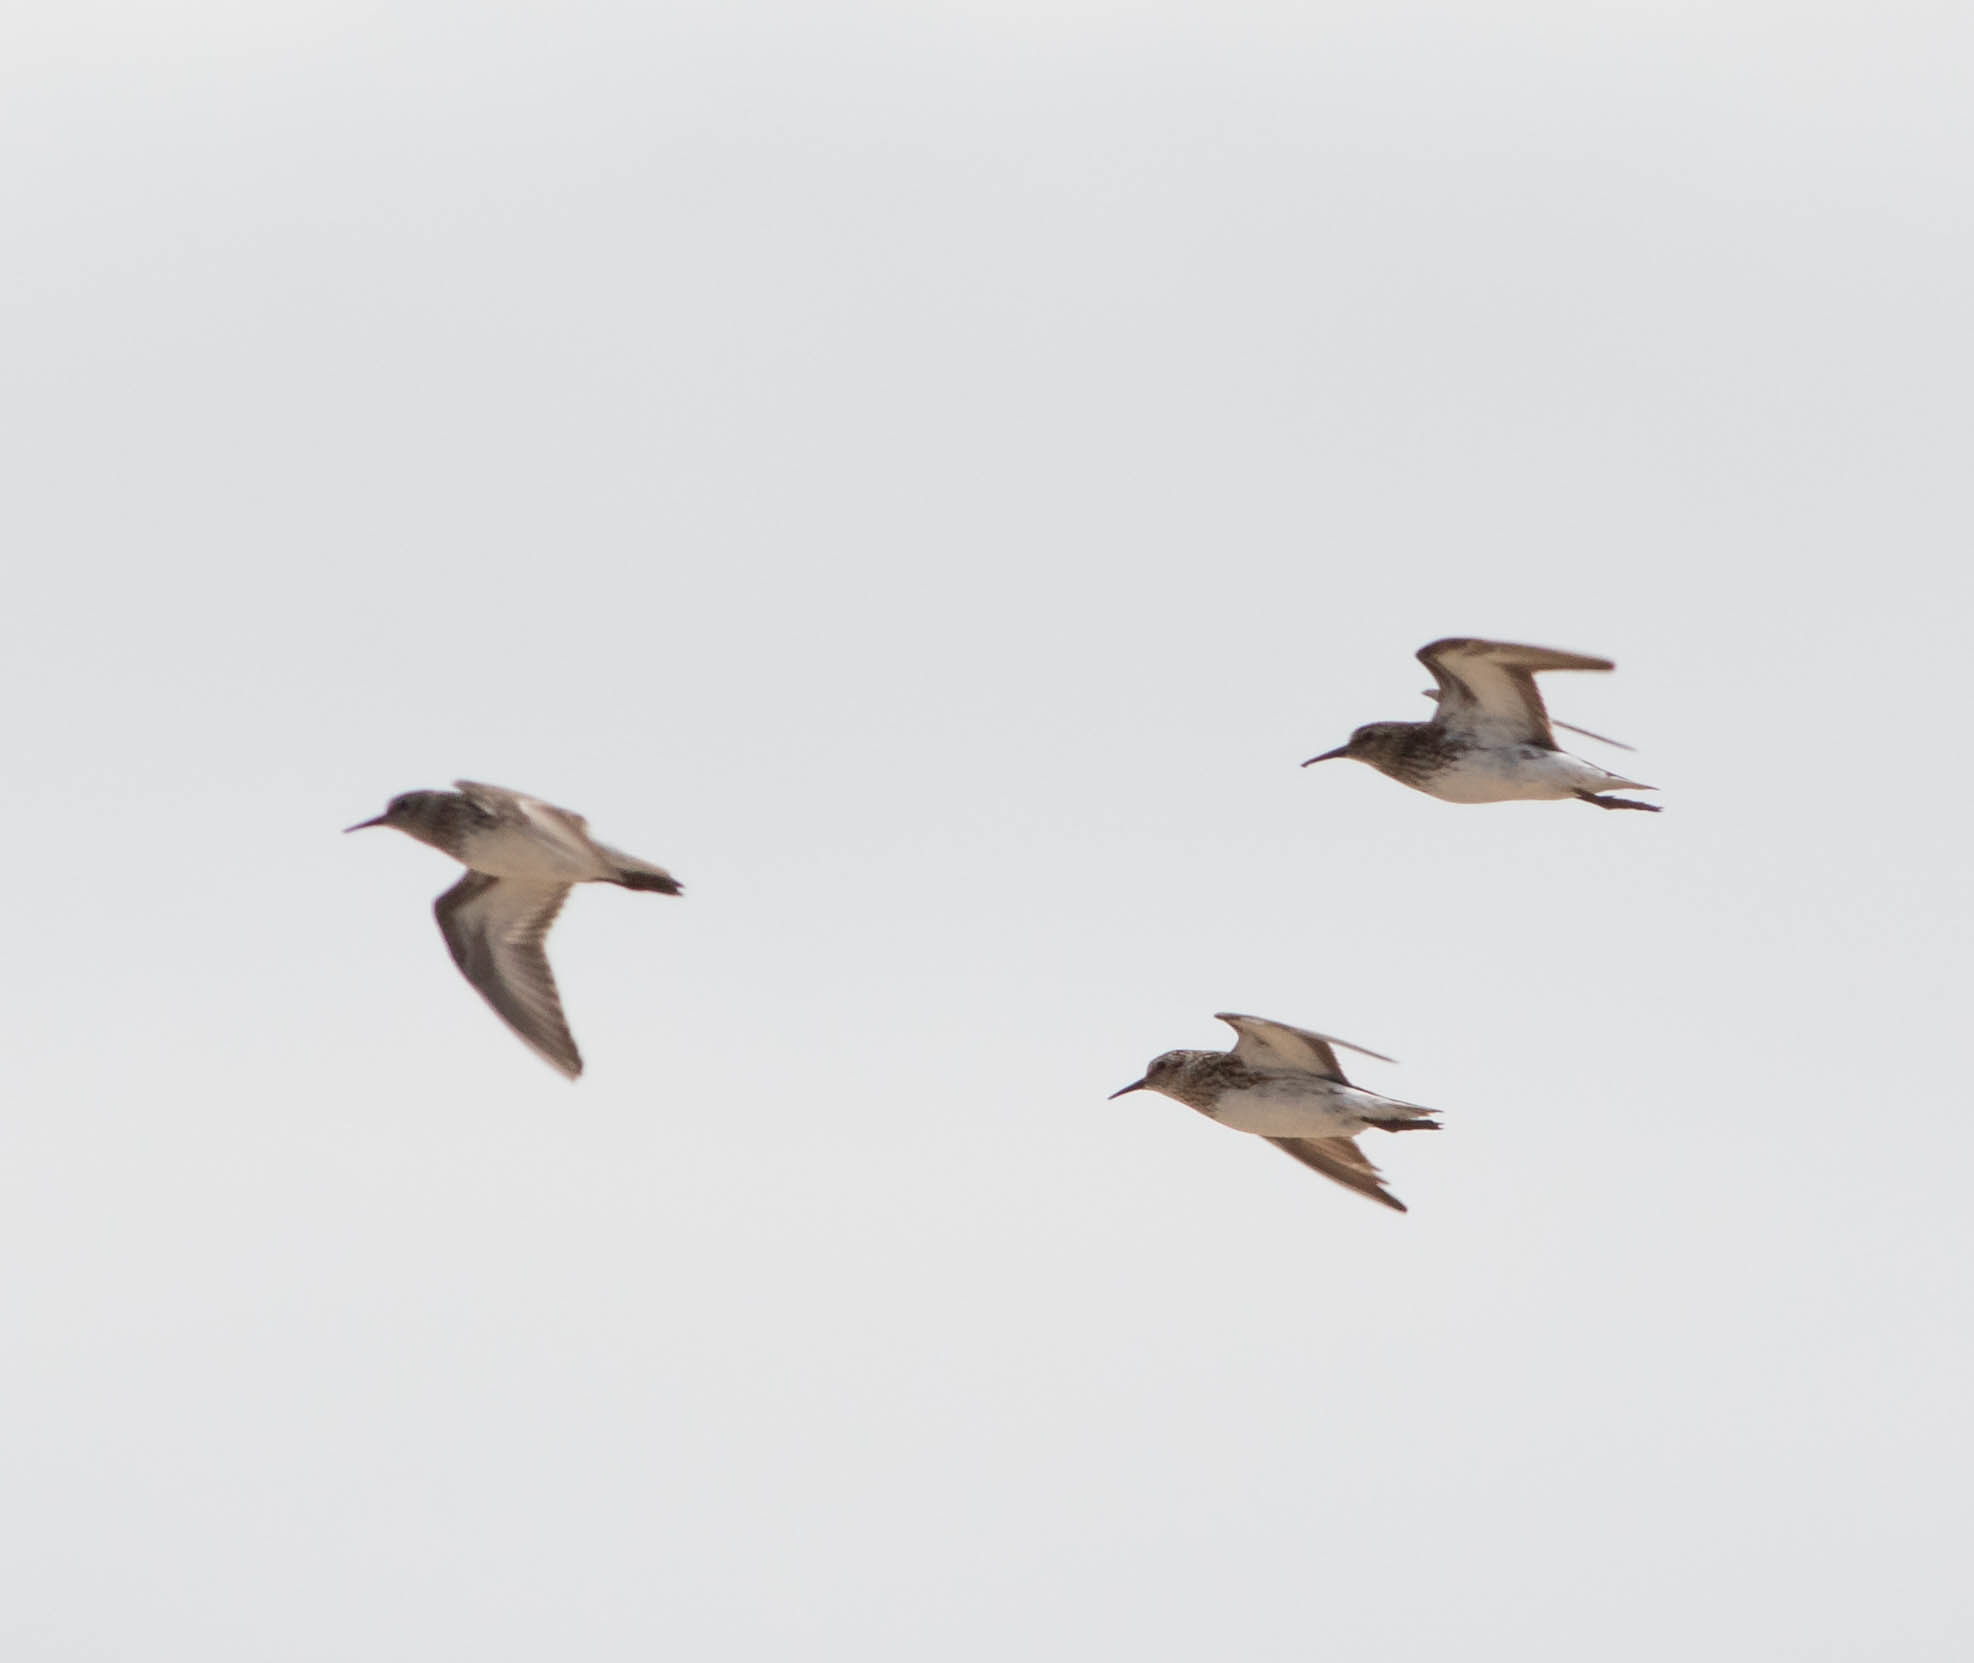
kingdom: Animalia
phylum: Chordata
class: Aves
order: Charadriiformes
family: Scolopacidae
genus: Calidris
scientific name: Calidris minutilla
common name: Least sandpiper
